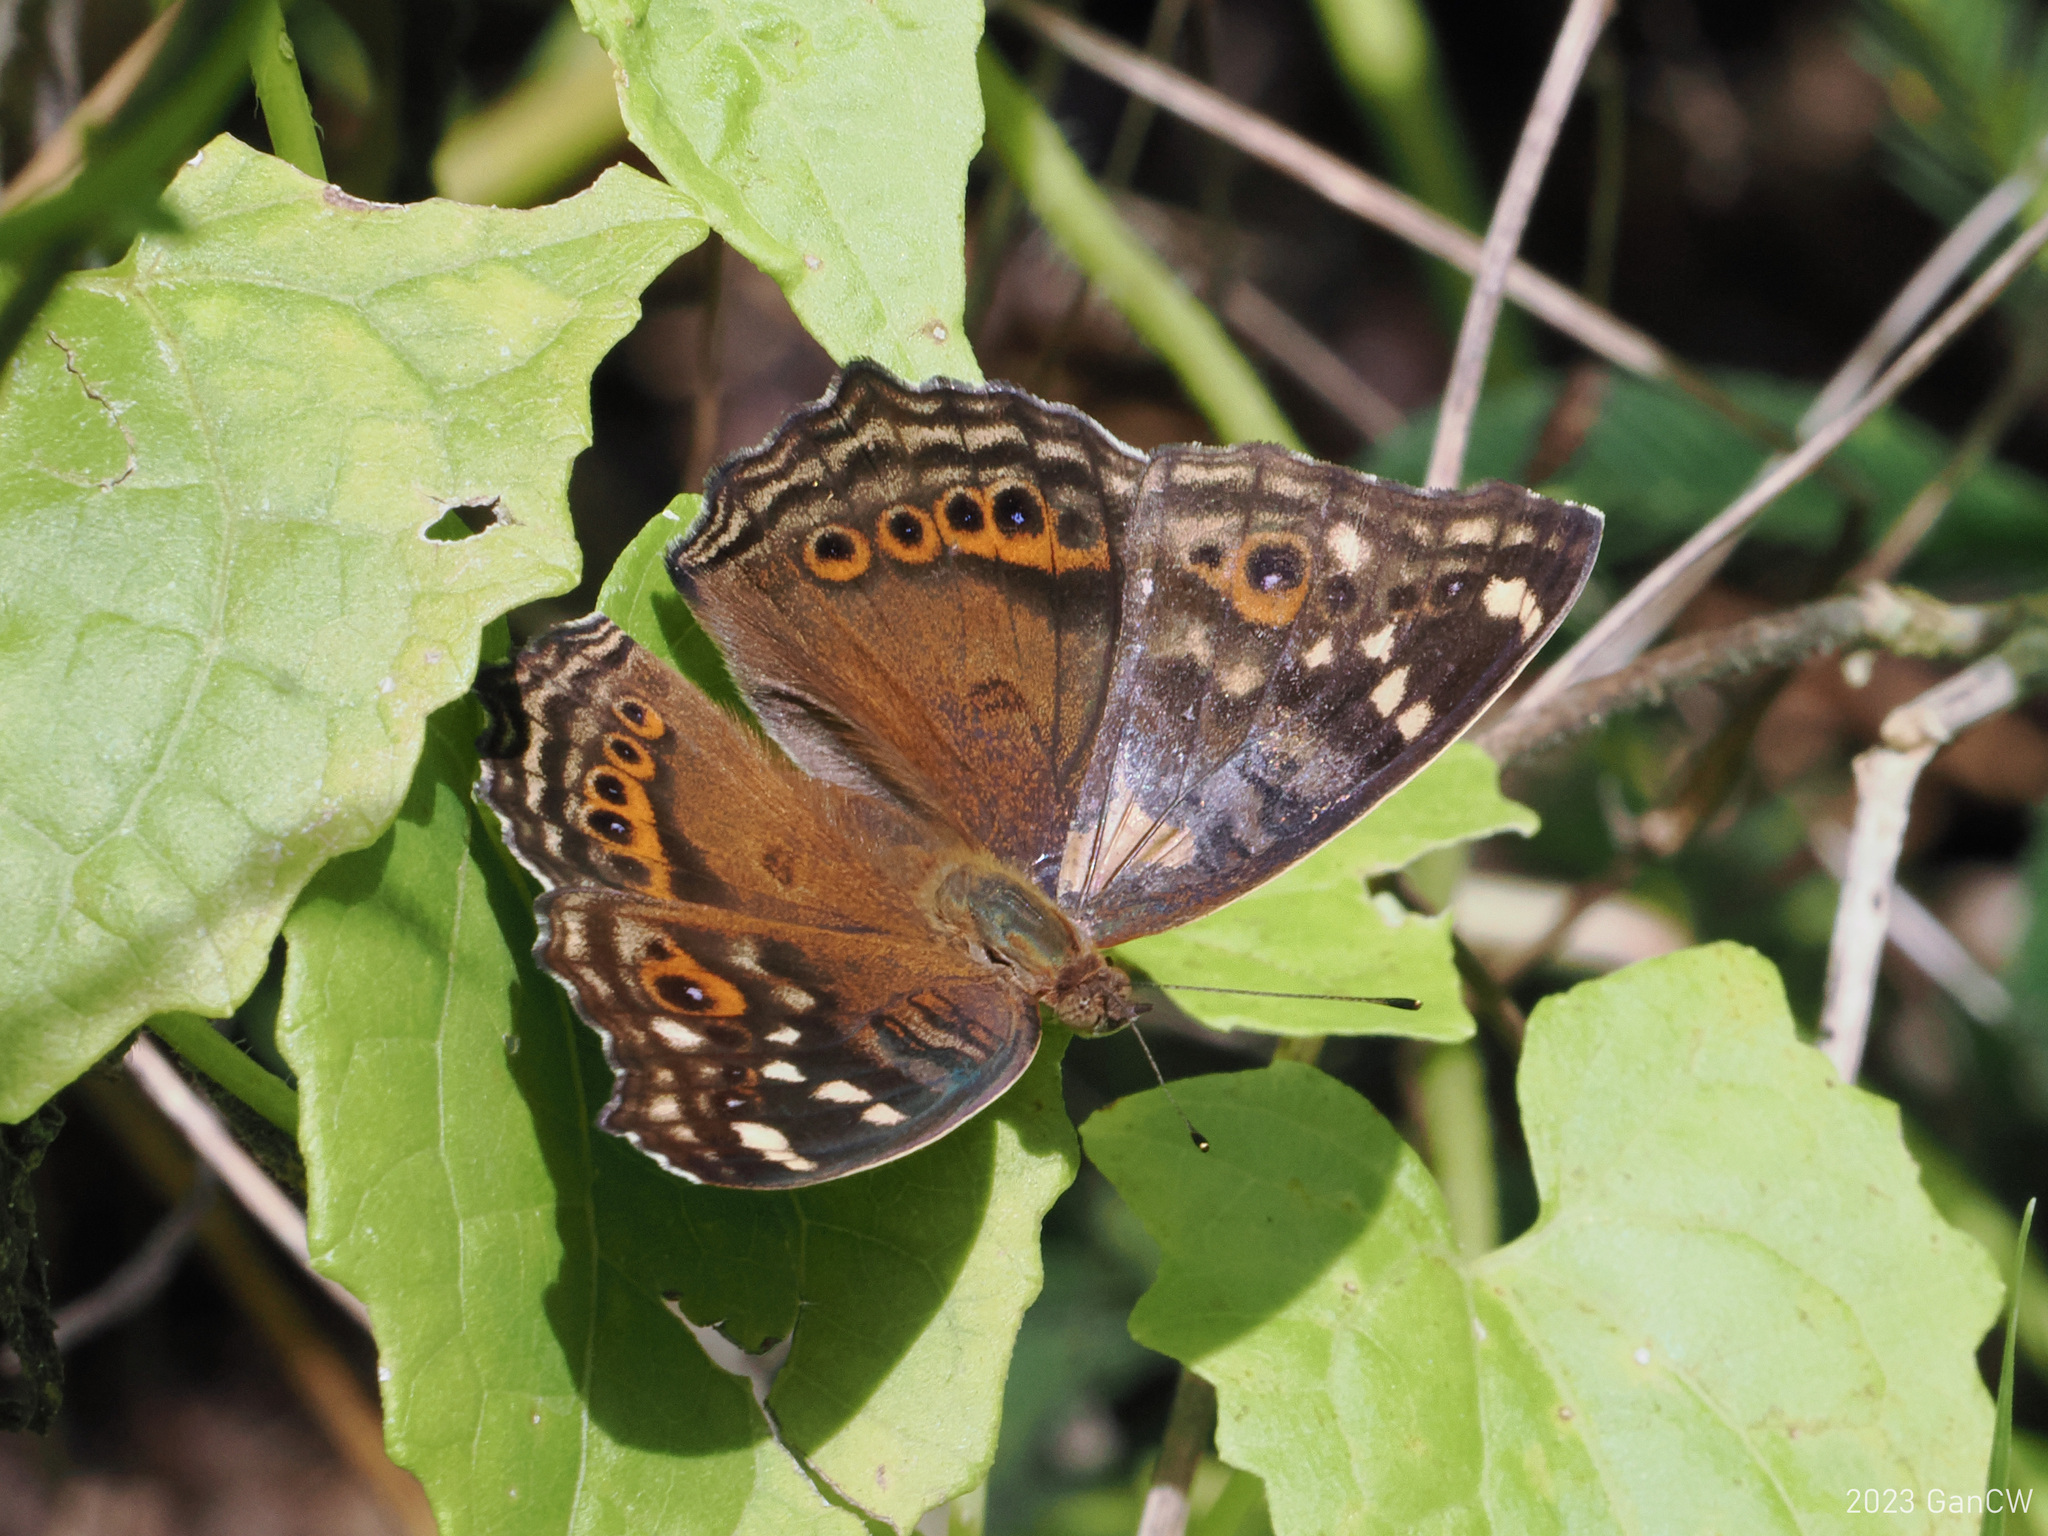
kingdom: Animalia
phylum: Arthropoda
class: Insecta
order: Lepidoptera
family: Nymphalidae
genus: Junonia
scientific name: Junonia erigone
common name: Northern argus
